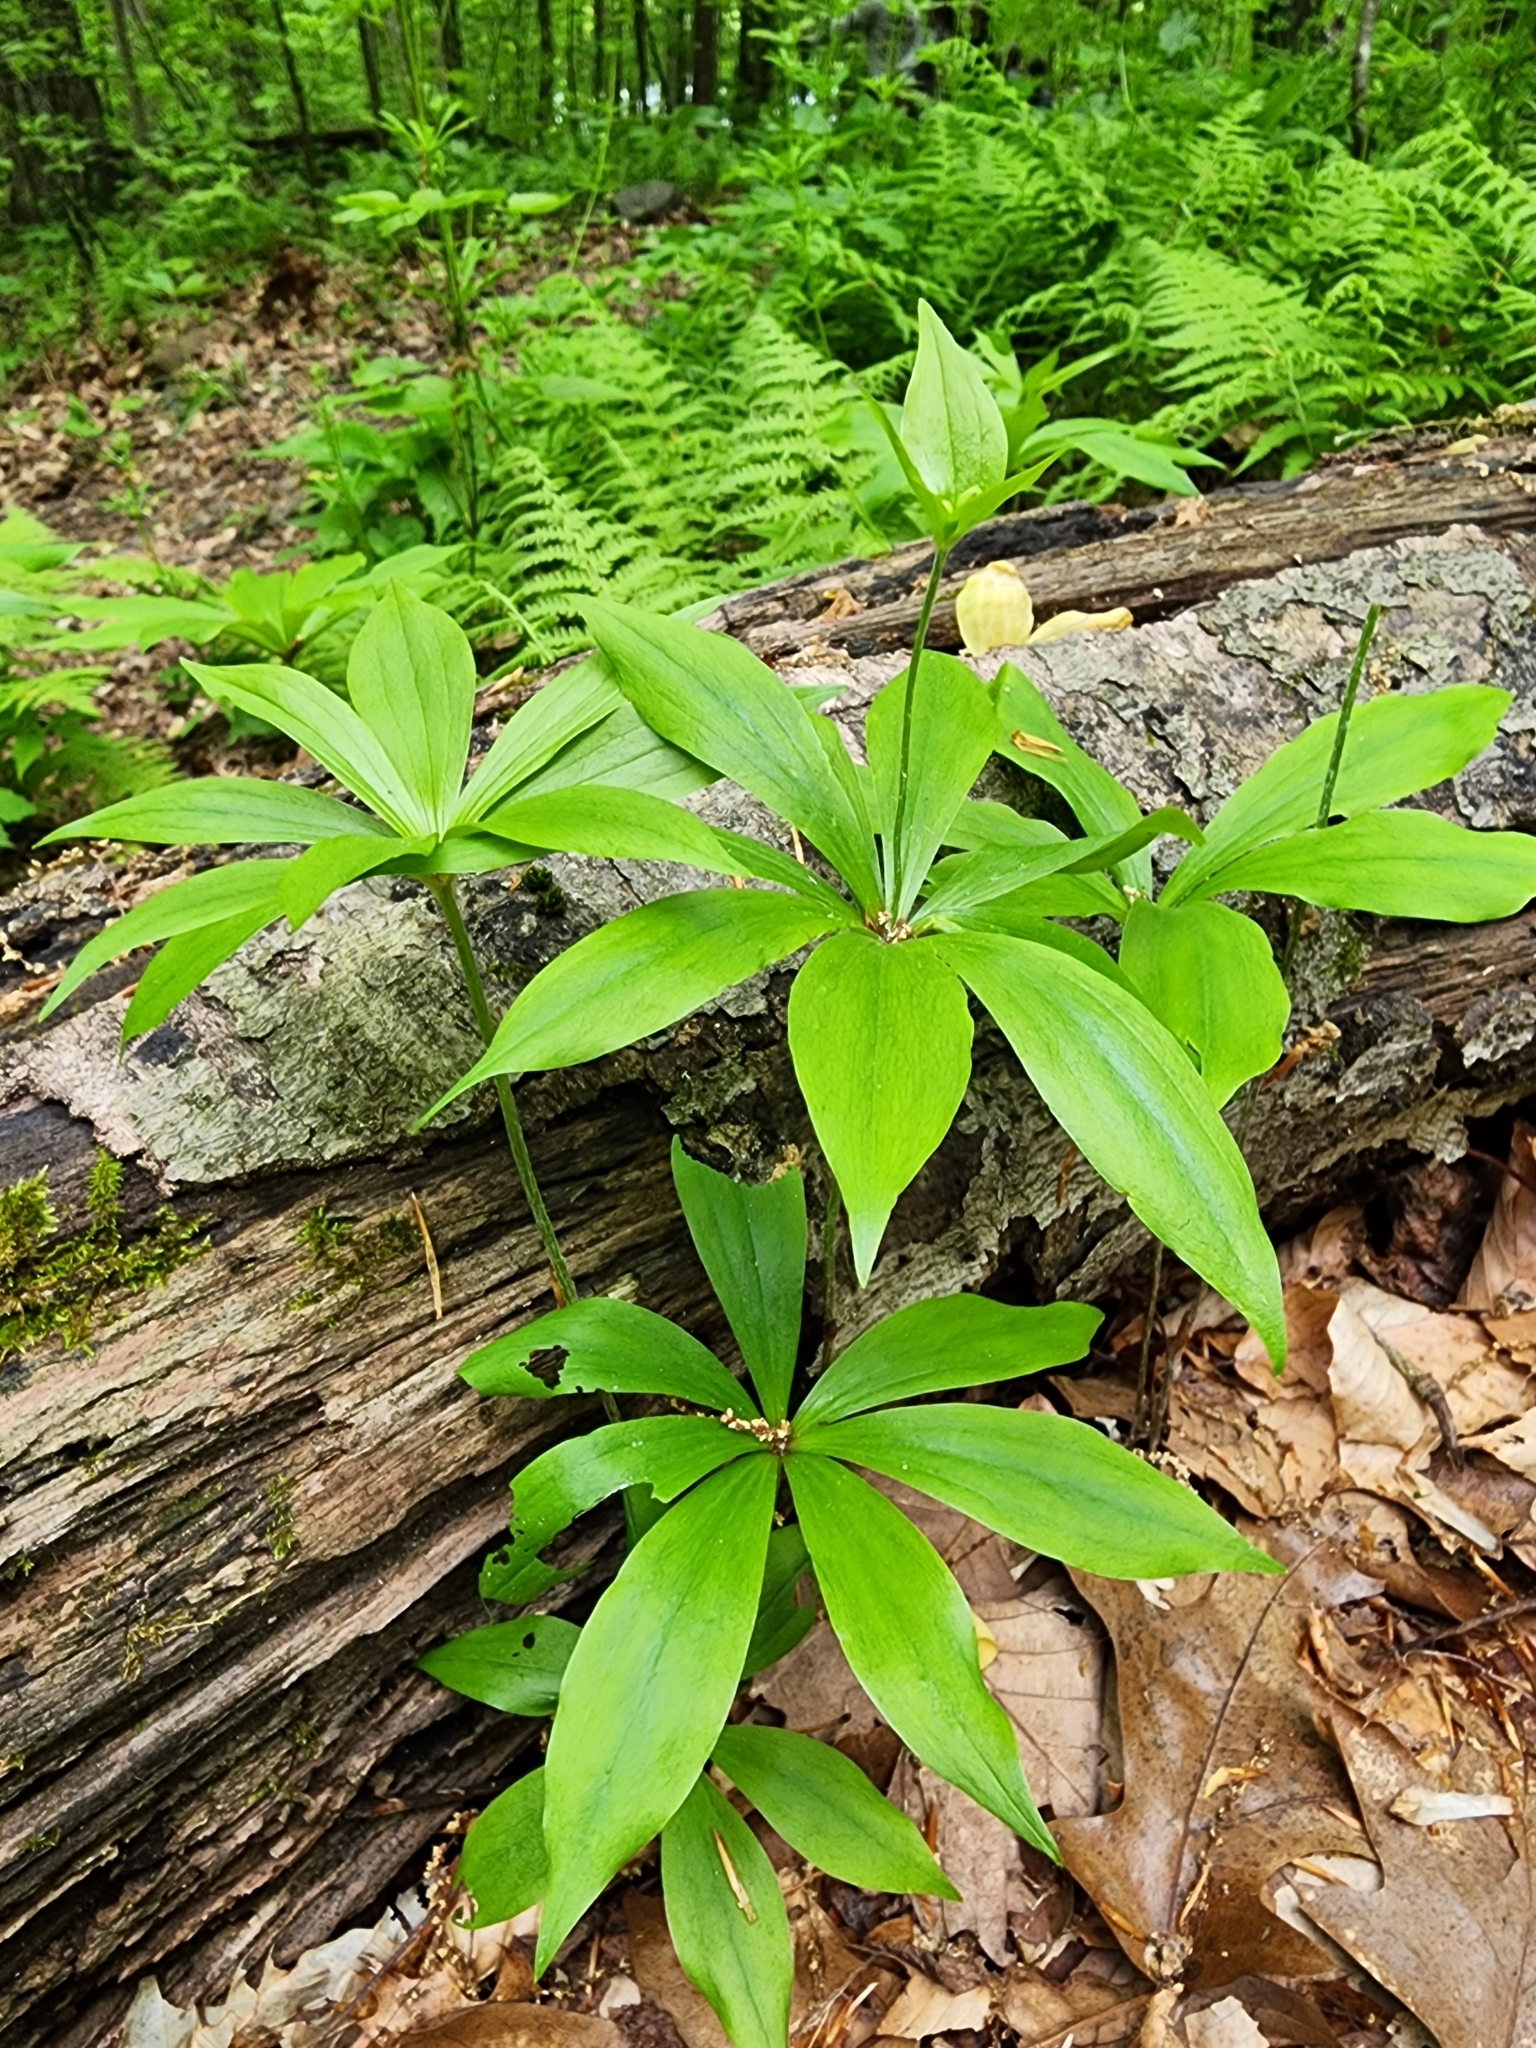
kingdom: Plantae
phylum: Tracheophyta
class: Liliopsida
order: Liliales
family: Liliaceae
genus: Medeola
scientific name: Medeola virginiana
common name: Indian cucumber-root
